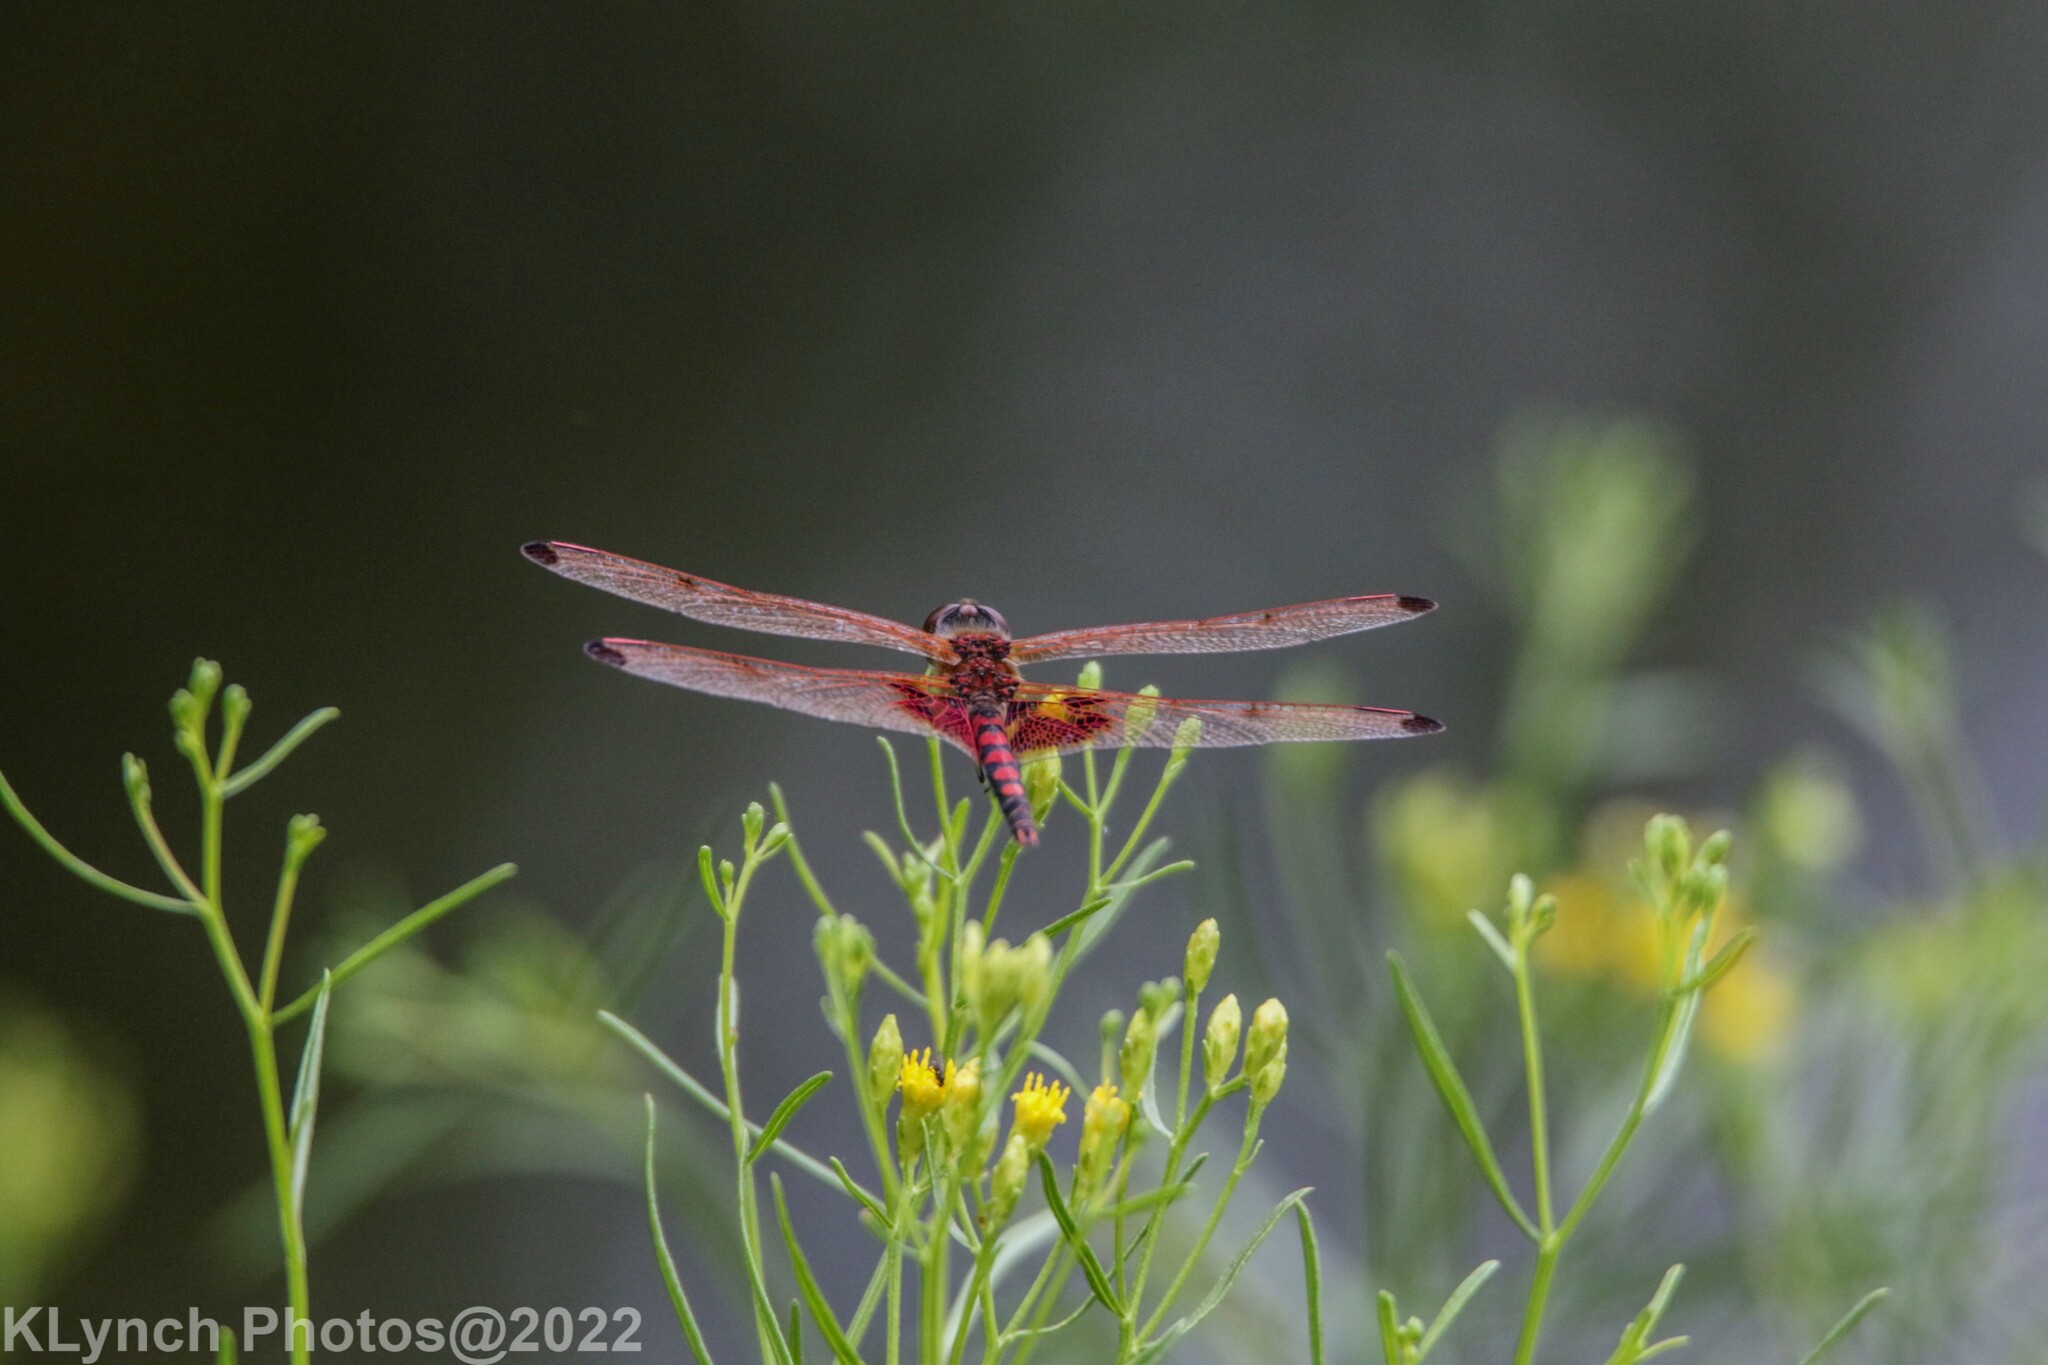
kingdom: Animalia
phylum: Arthropoda
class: Insecta
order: Odonata
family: Libellulidae
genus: Celithemis
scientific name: Celithemis elisa
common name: Calico pennant
